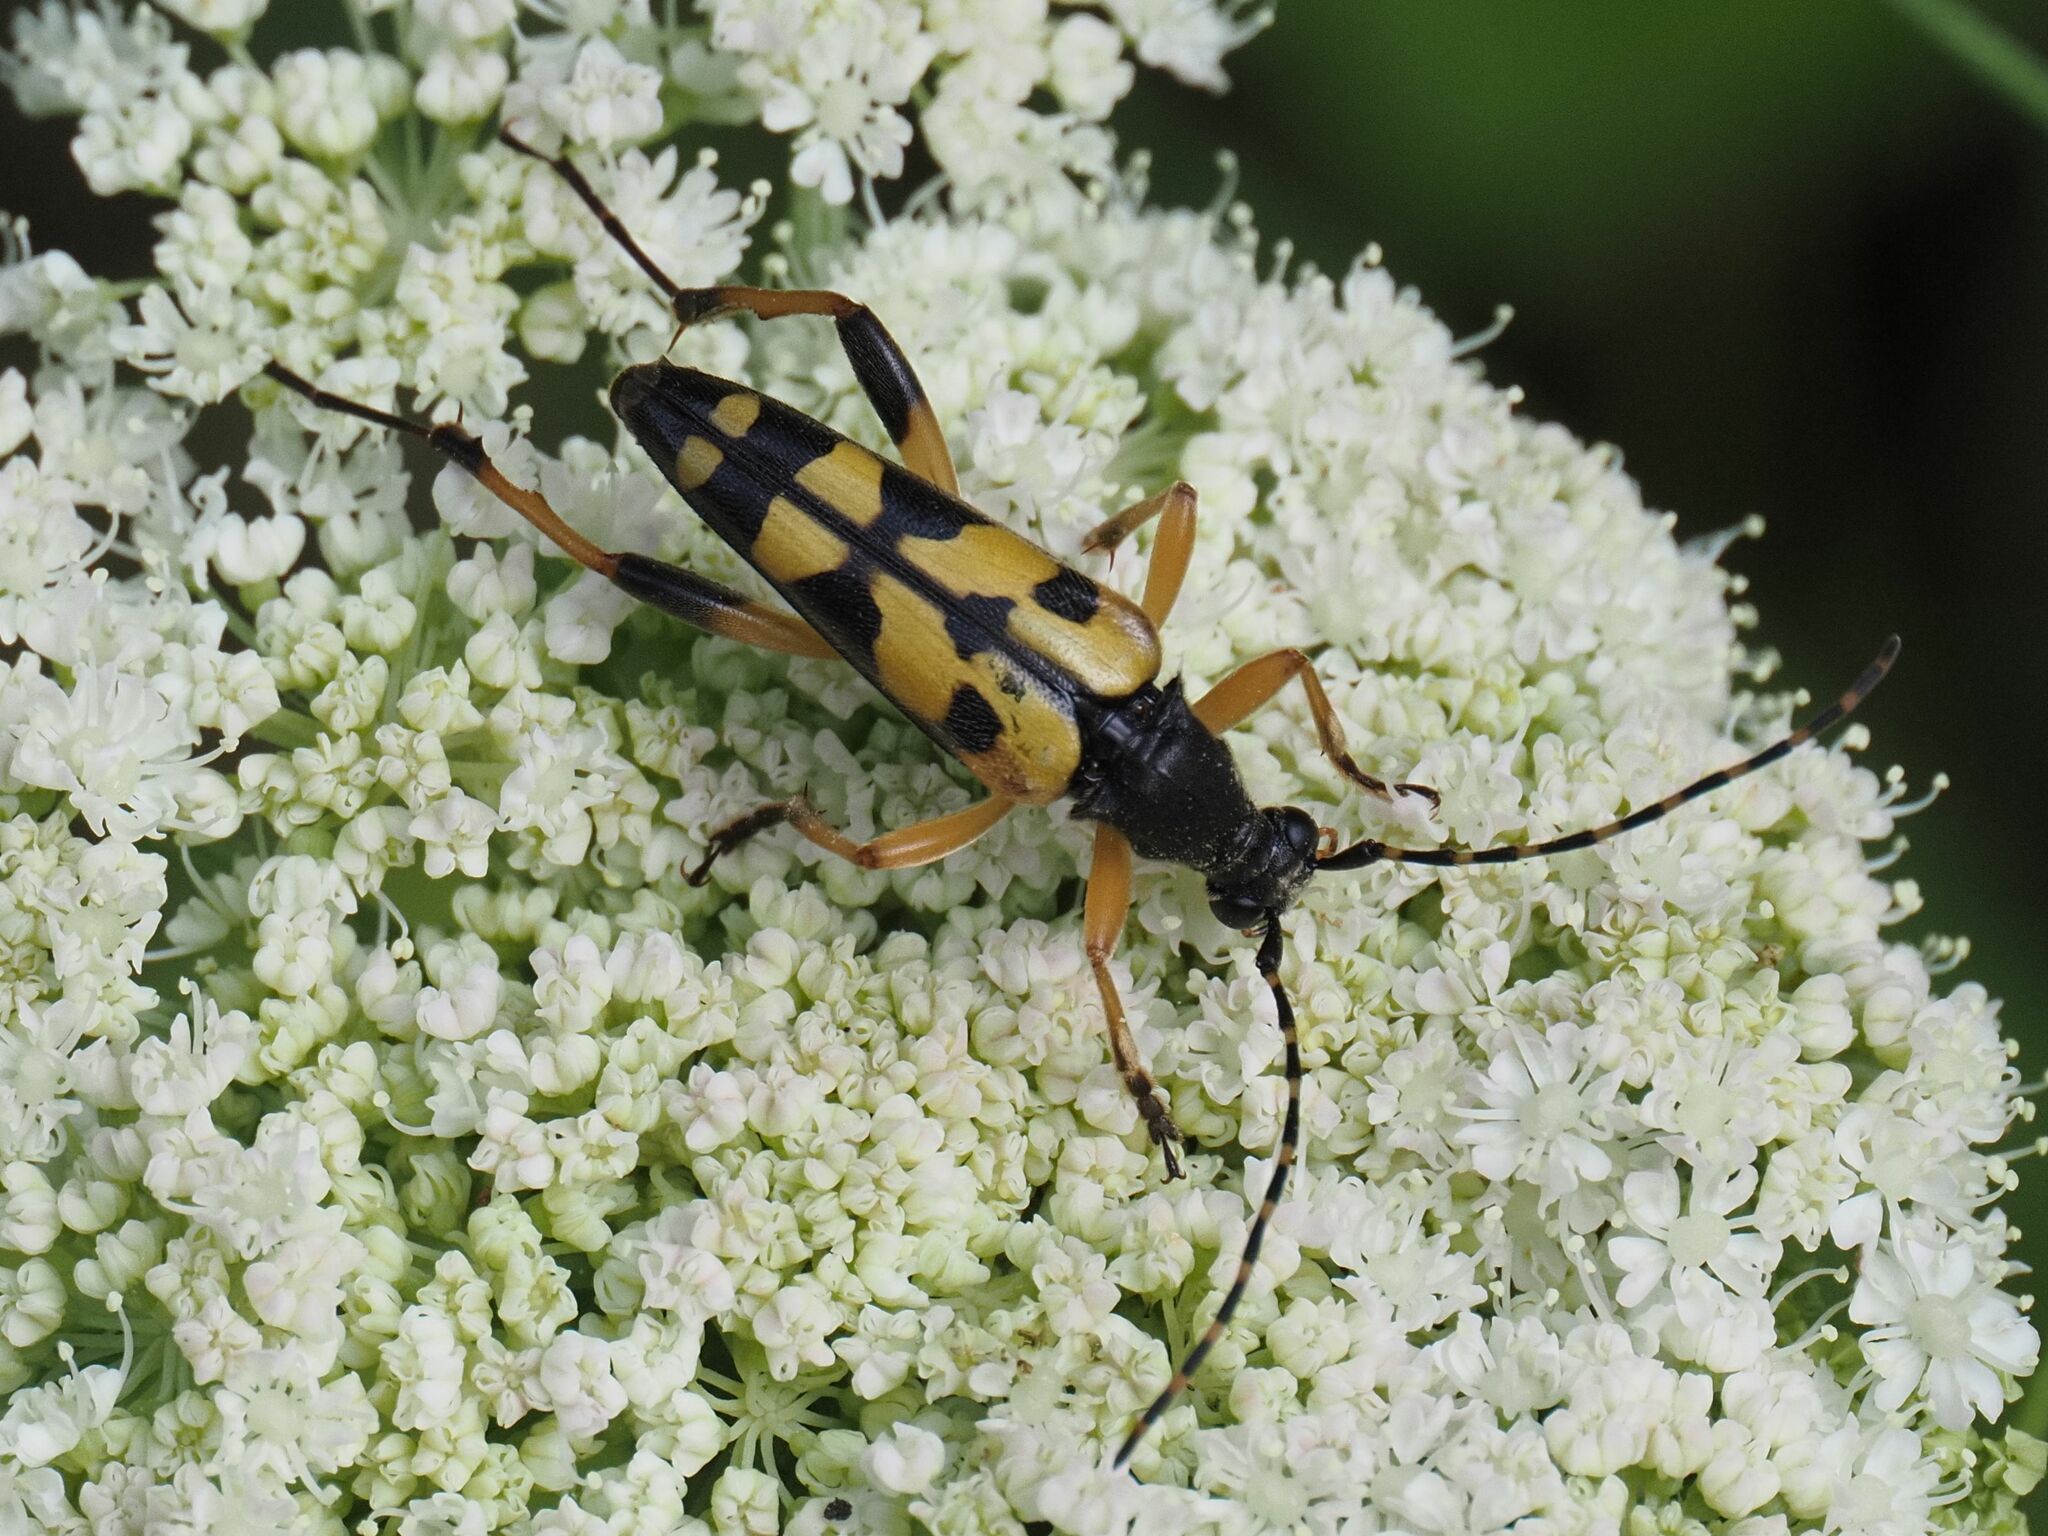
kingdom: Animalia
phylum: Arthropoda
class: Insecta
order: Coleoptera
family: Cerambycidae
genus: Rutpela
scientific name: Rutpela maculata
